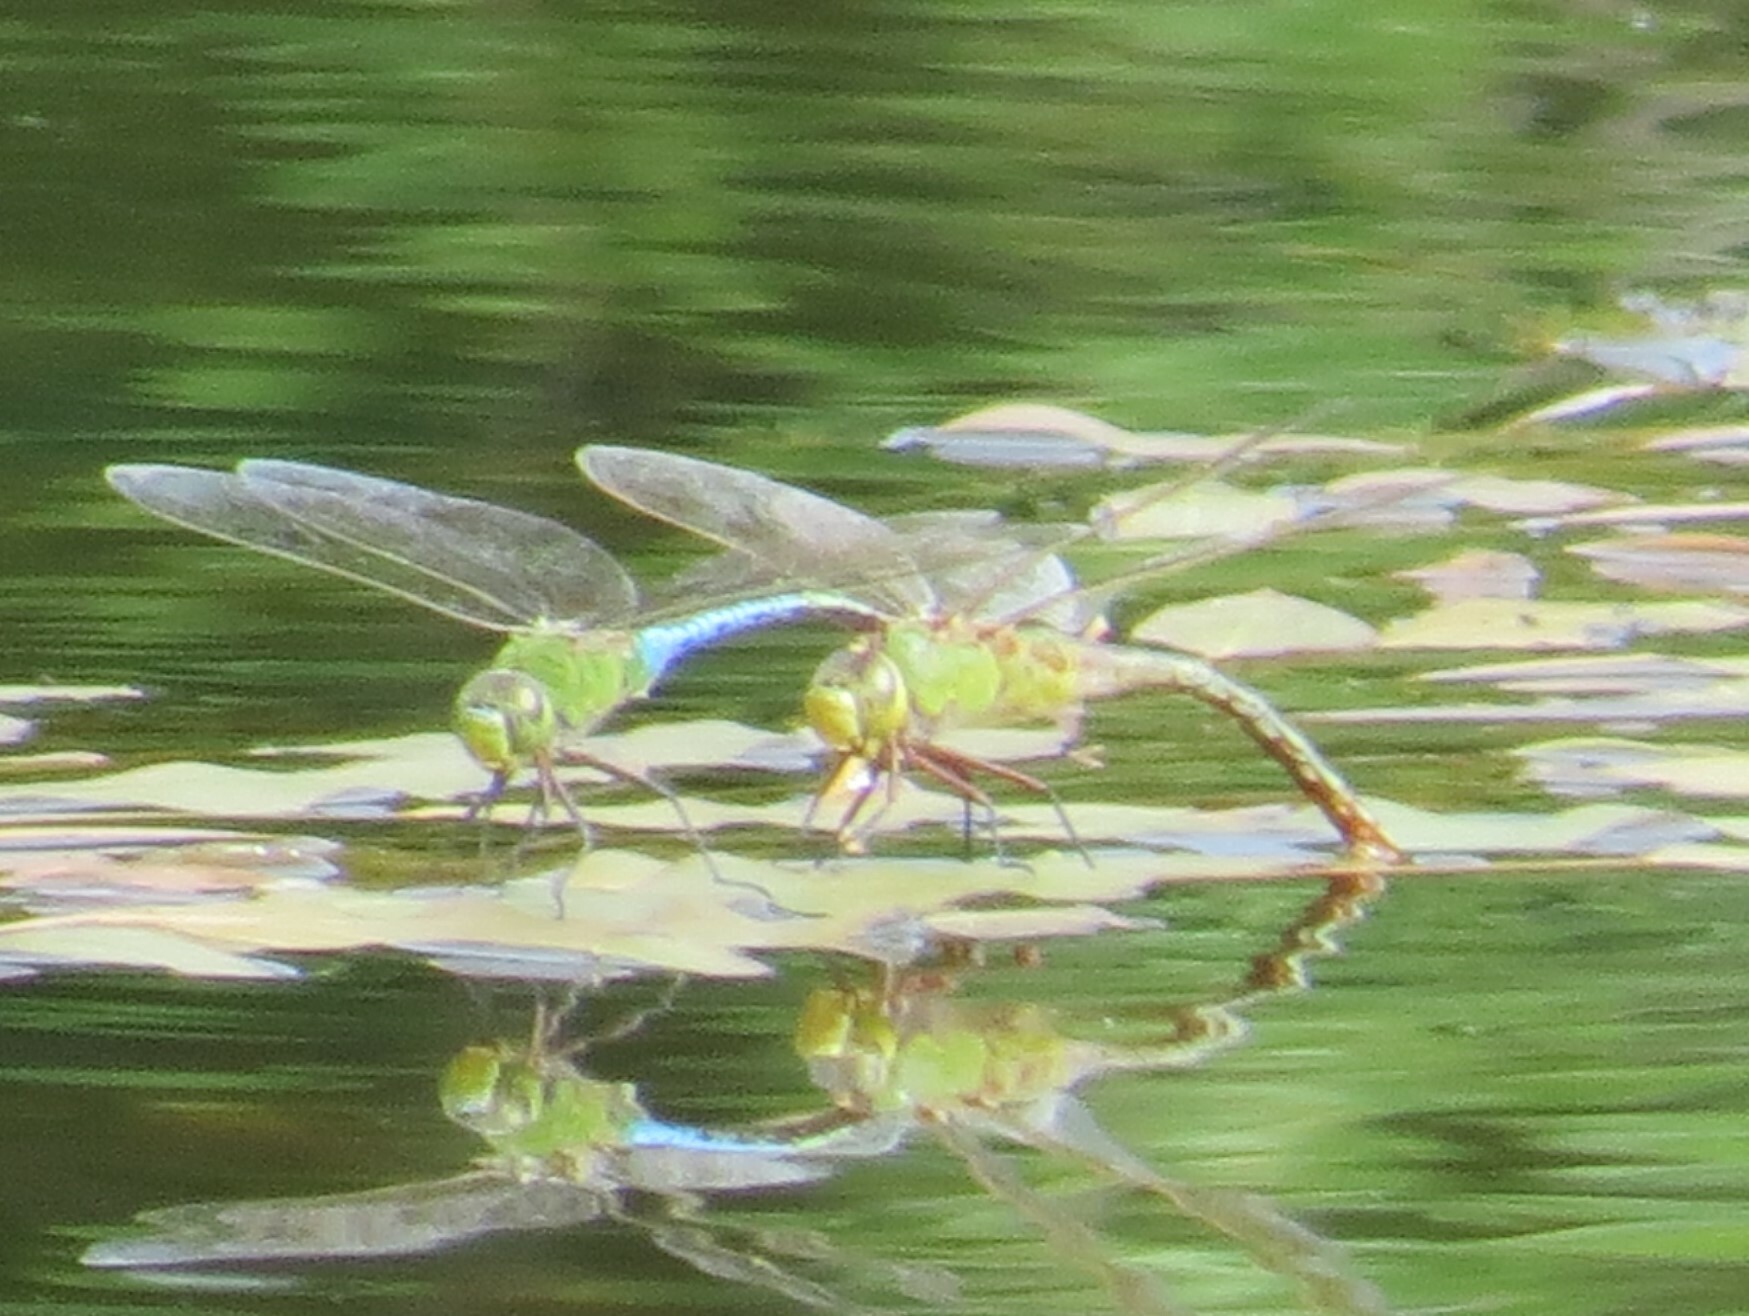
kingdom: Animalia
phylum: Arthropoda
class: Insecta
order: Odonata
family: Aeshnidae
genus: Anax
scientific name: Anax junius
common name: Common green darner
